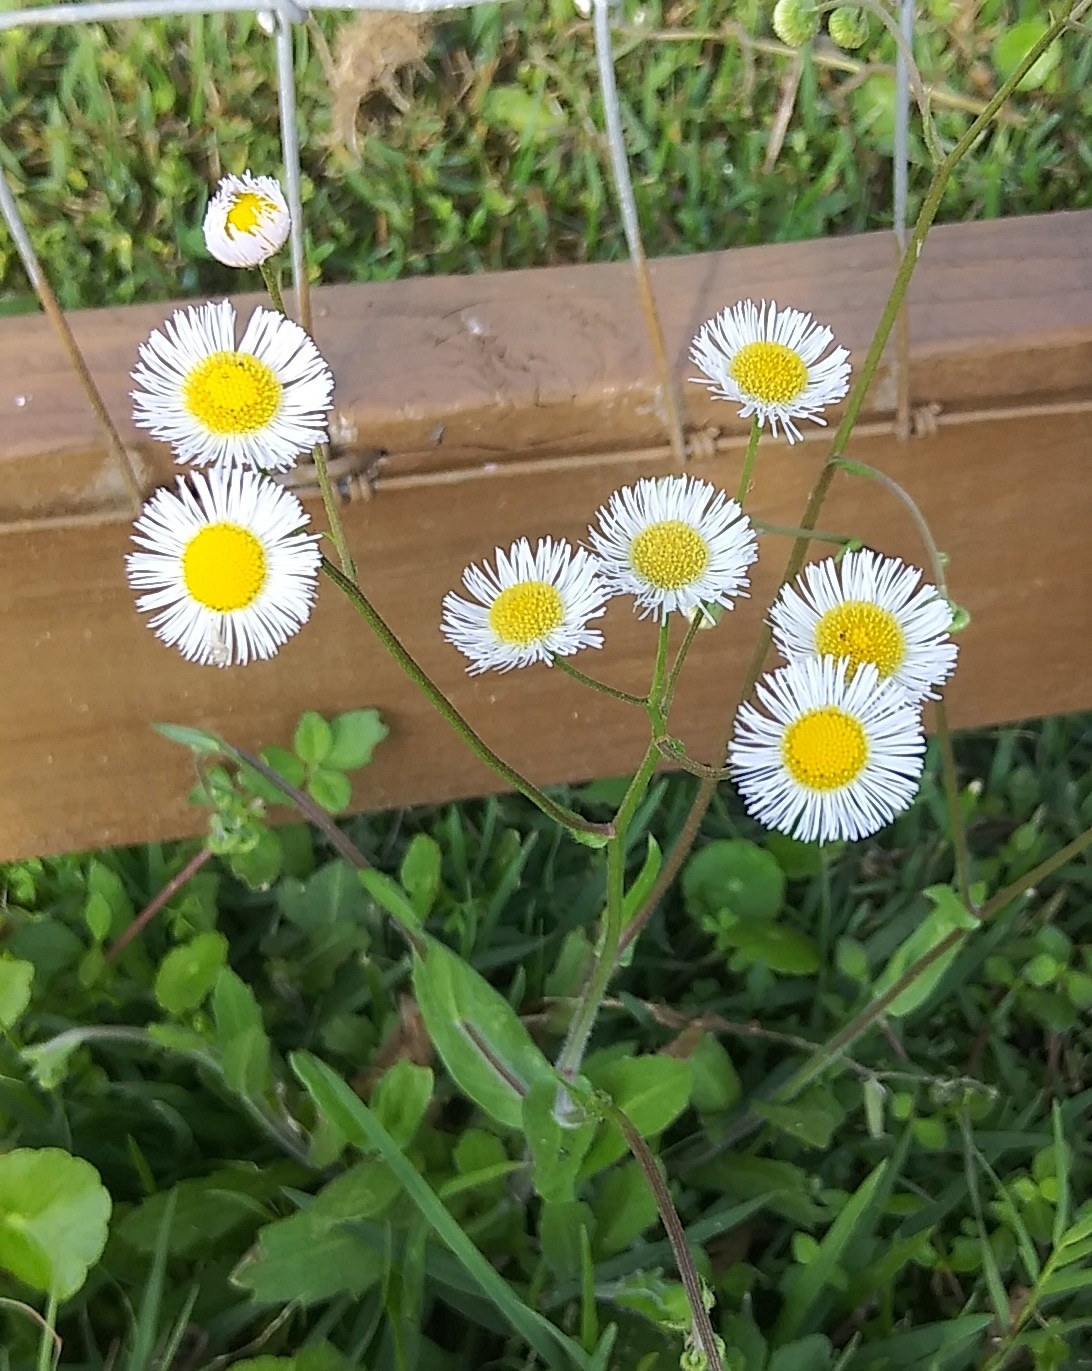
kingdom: Plantae
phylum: Tracheophyta
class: Magnoliopsida
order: Asterales
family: Asteraceae
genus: Erigeron
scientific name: Erigeron quercifolius
